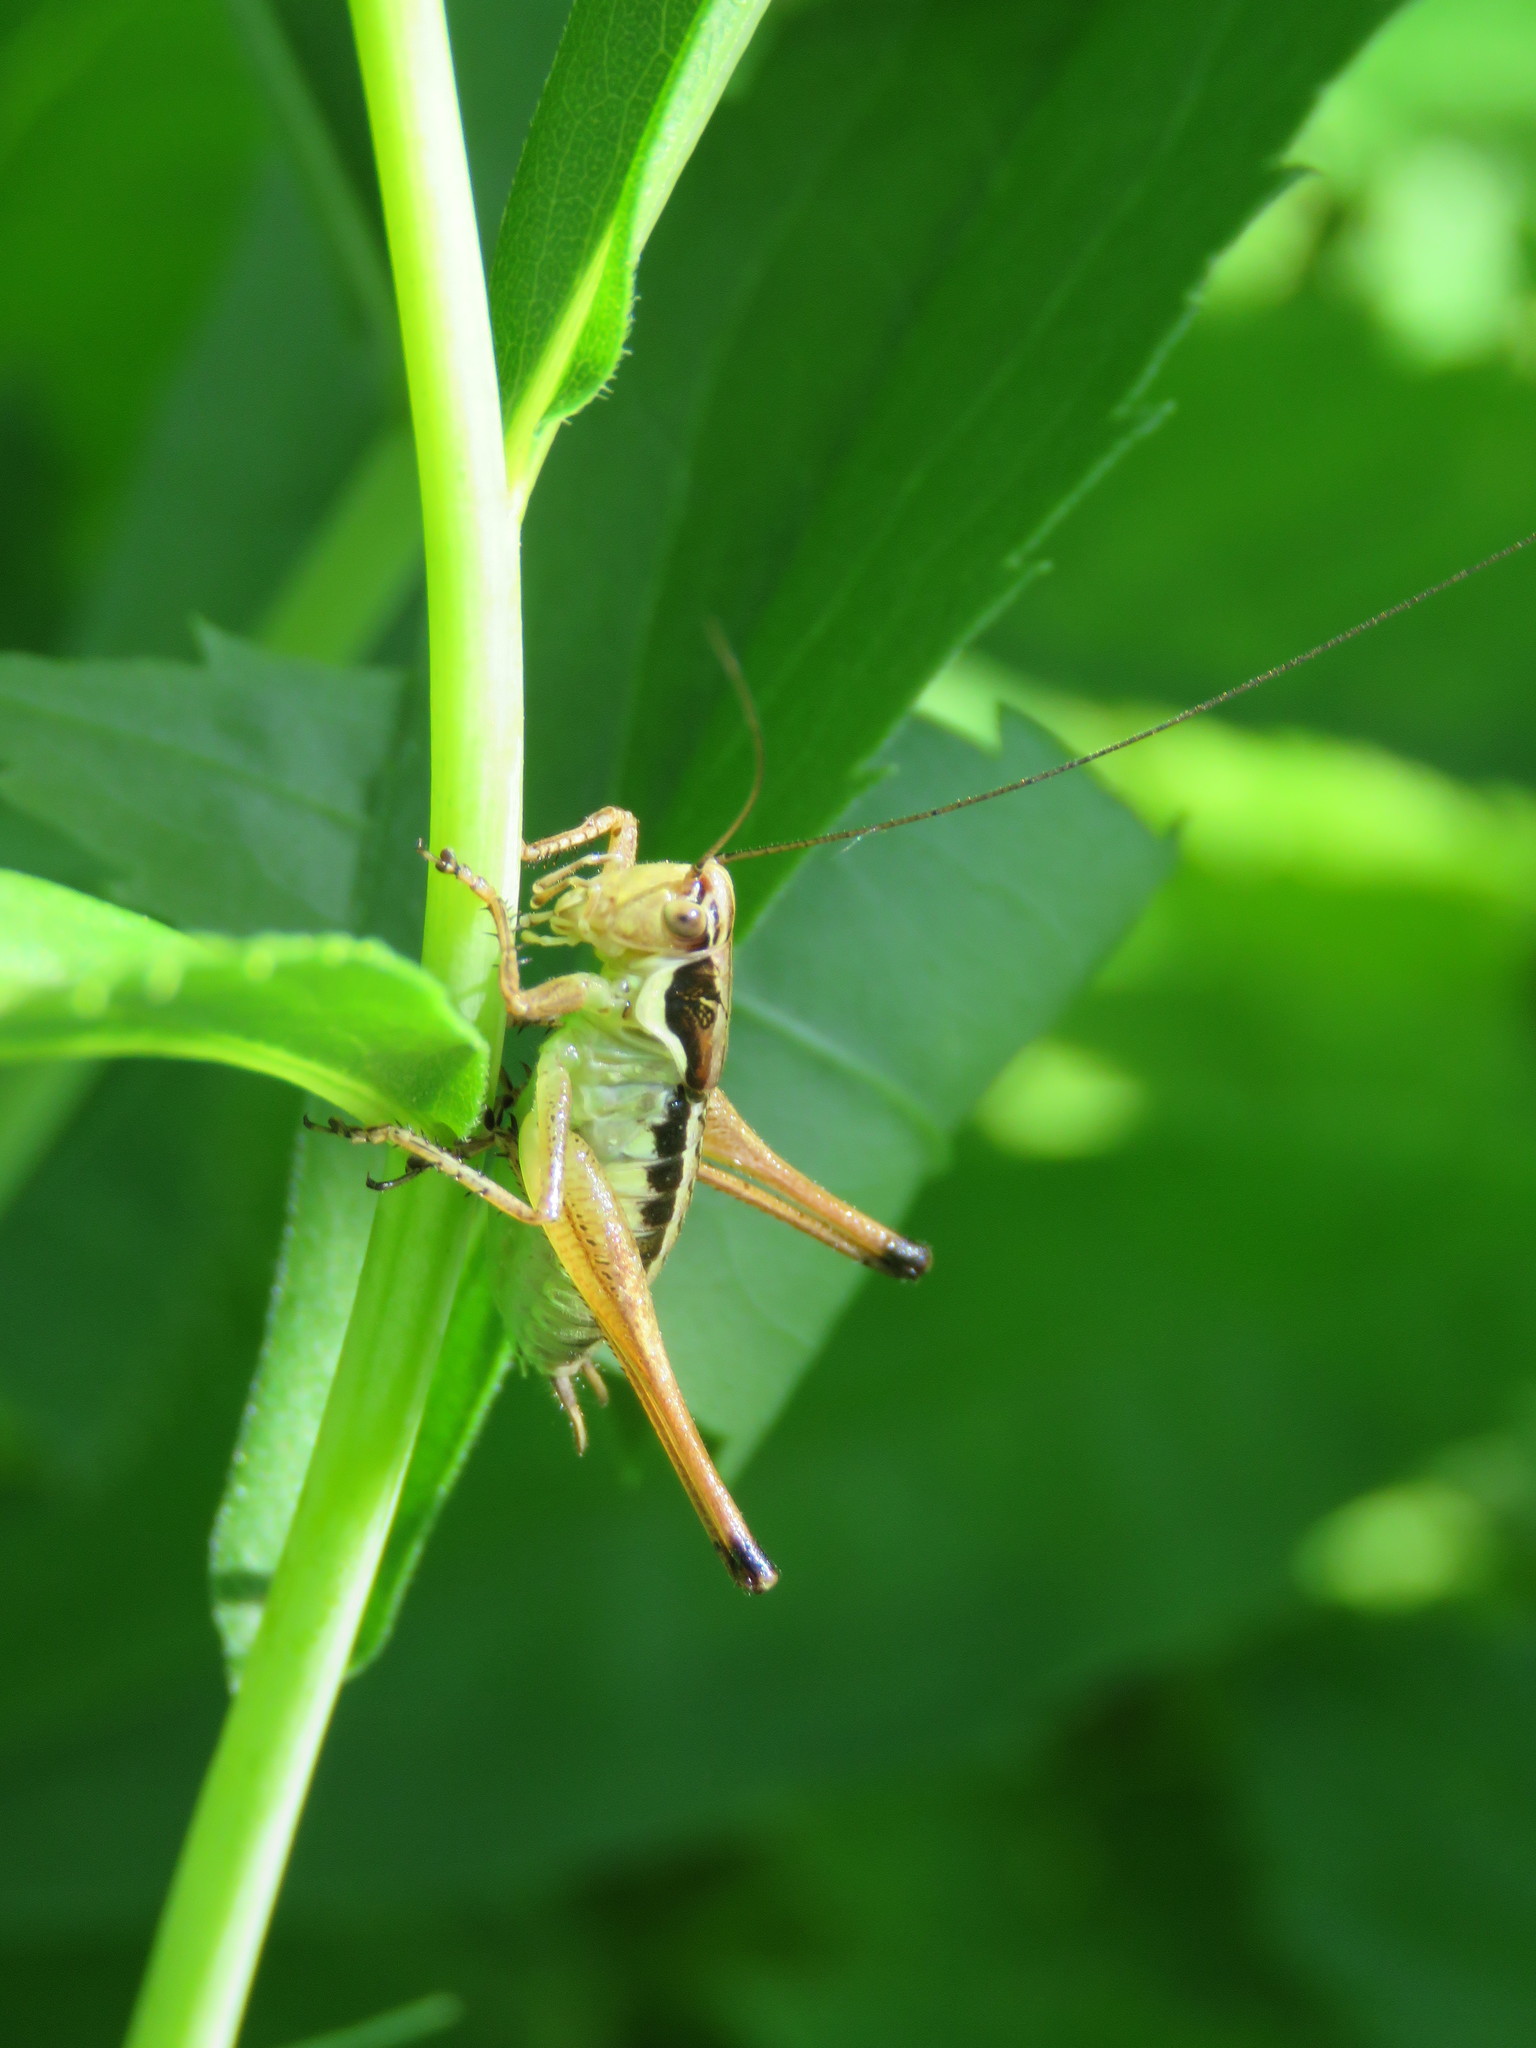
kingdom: Animalia
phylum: Arthropoda
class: Insecta
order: Orthoptera
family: Tettigoniidae
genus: Pachytrachis
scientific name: Pachytrachis gracilis
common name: Graceful bush-cricket
